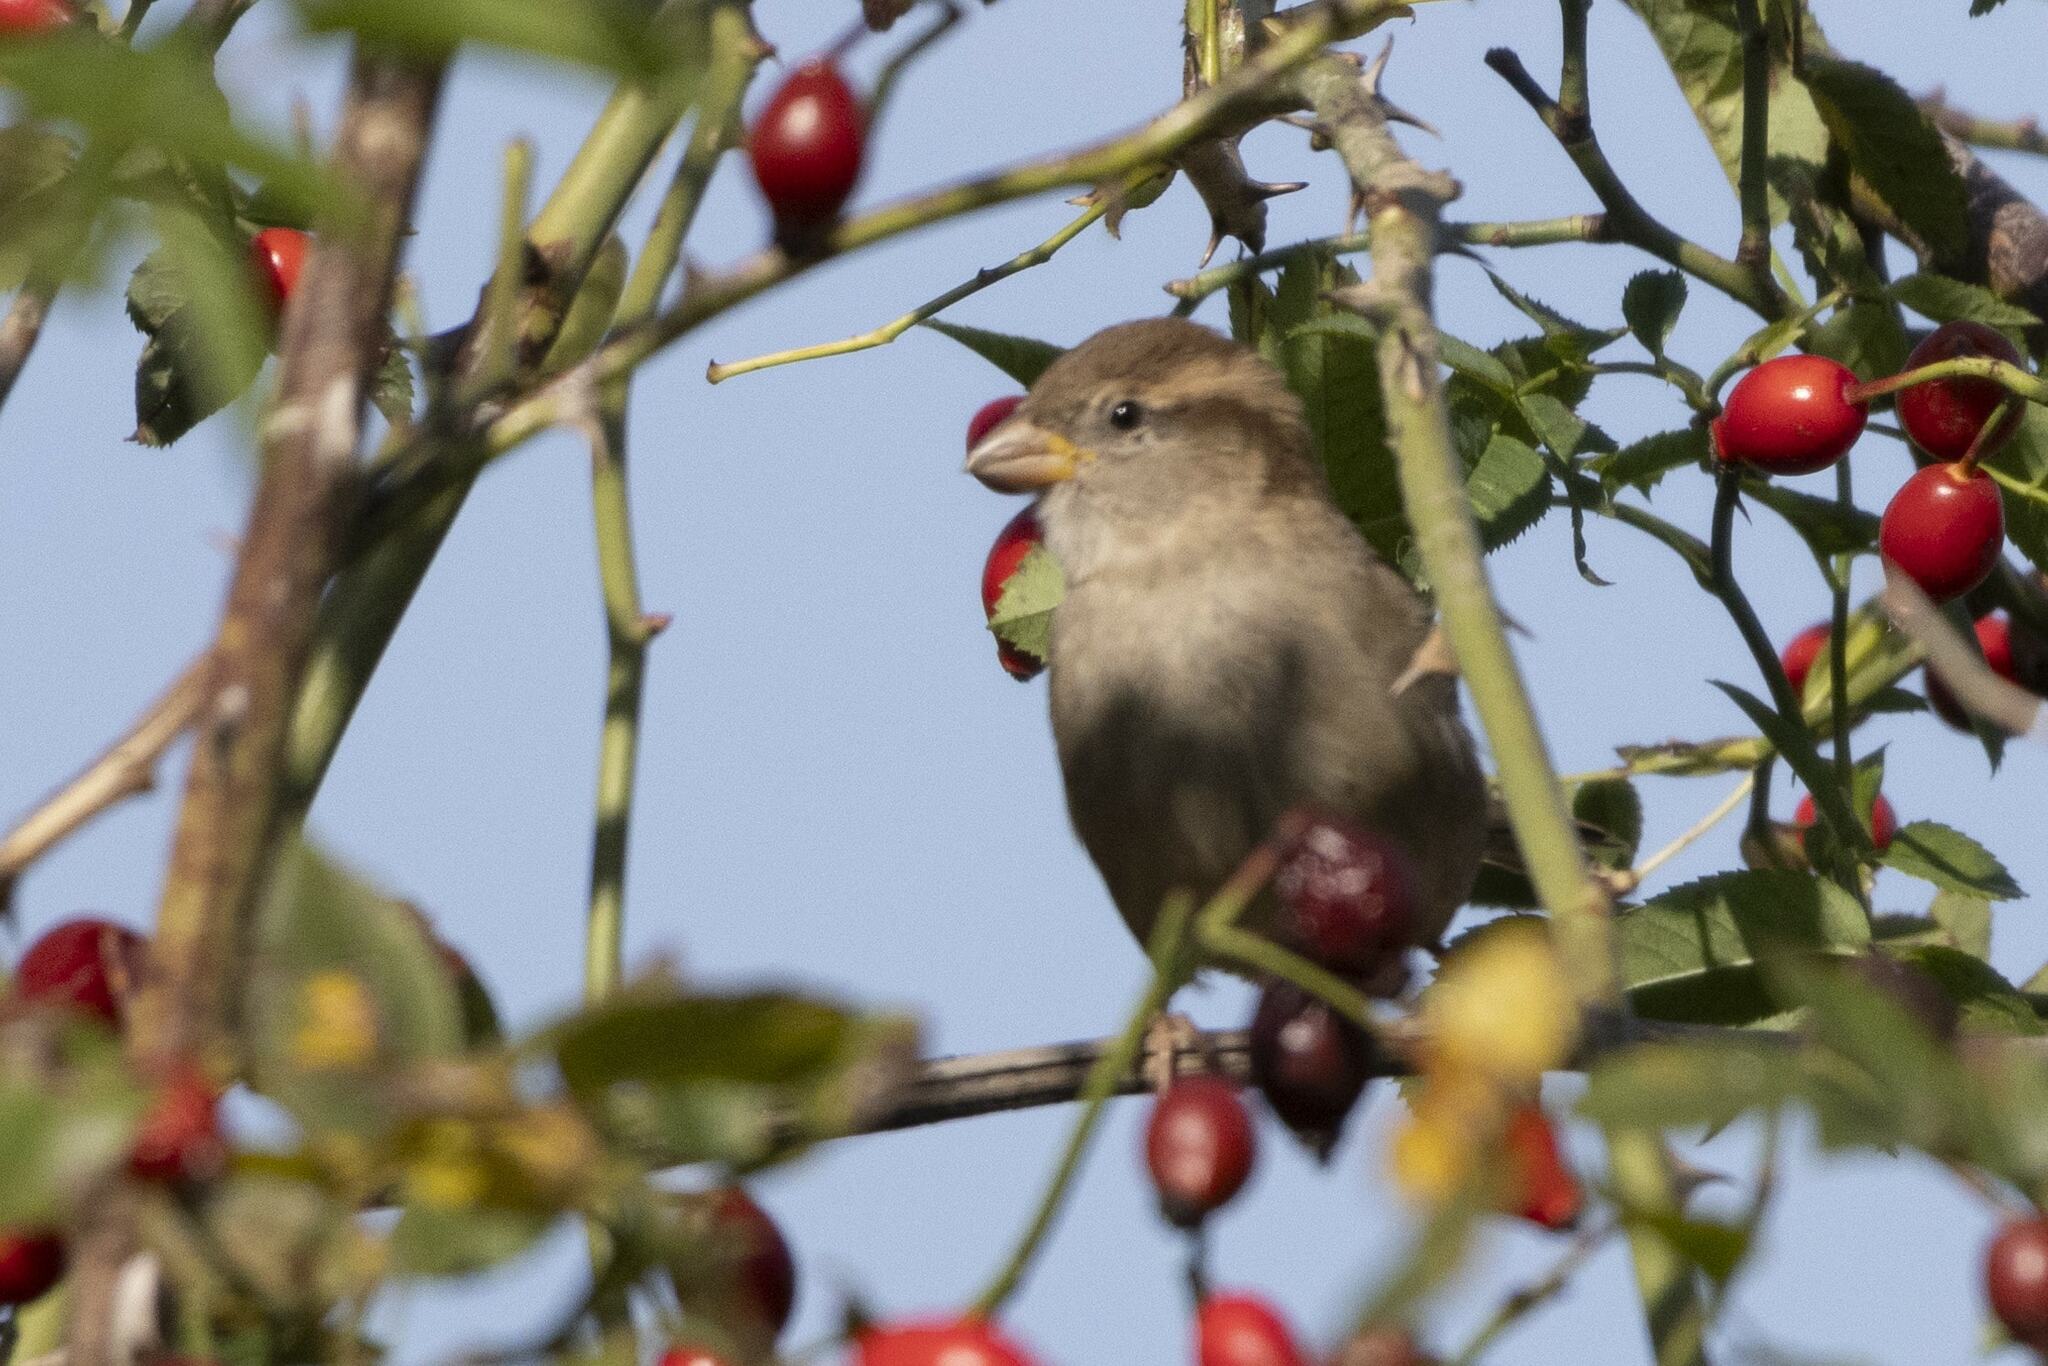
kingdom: Animalia
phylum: Chordata
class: Aves
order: Passeriformes
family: Passeridae
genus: Passer
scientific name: Passer domesticus
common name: House sparrow
